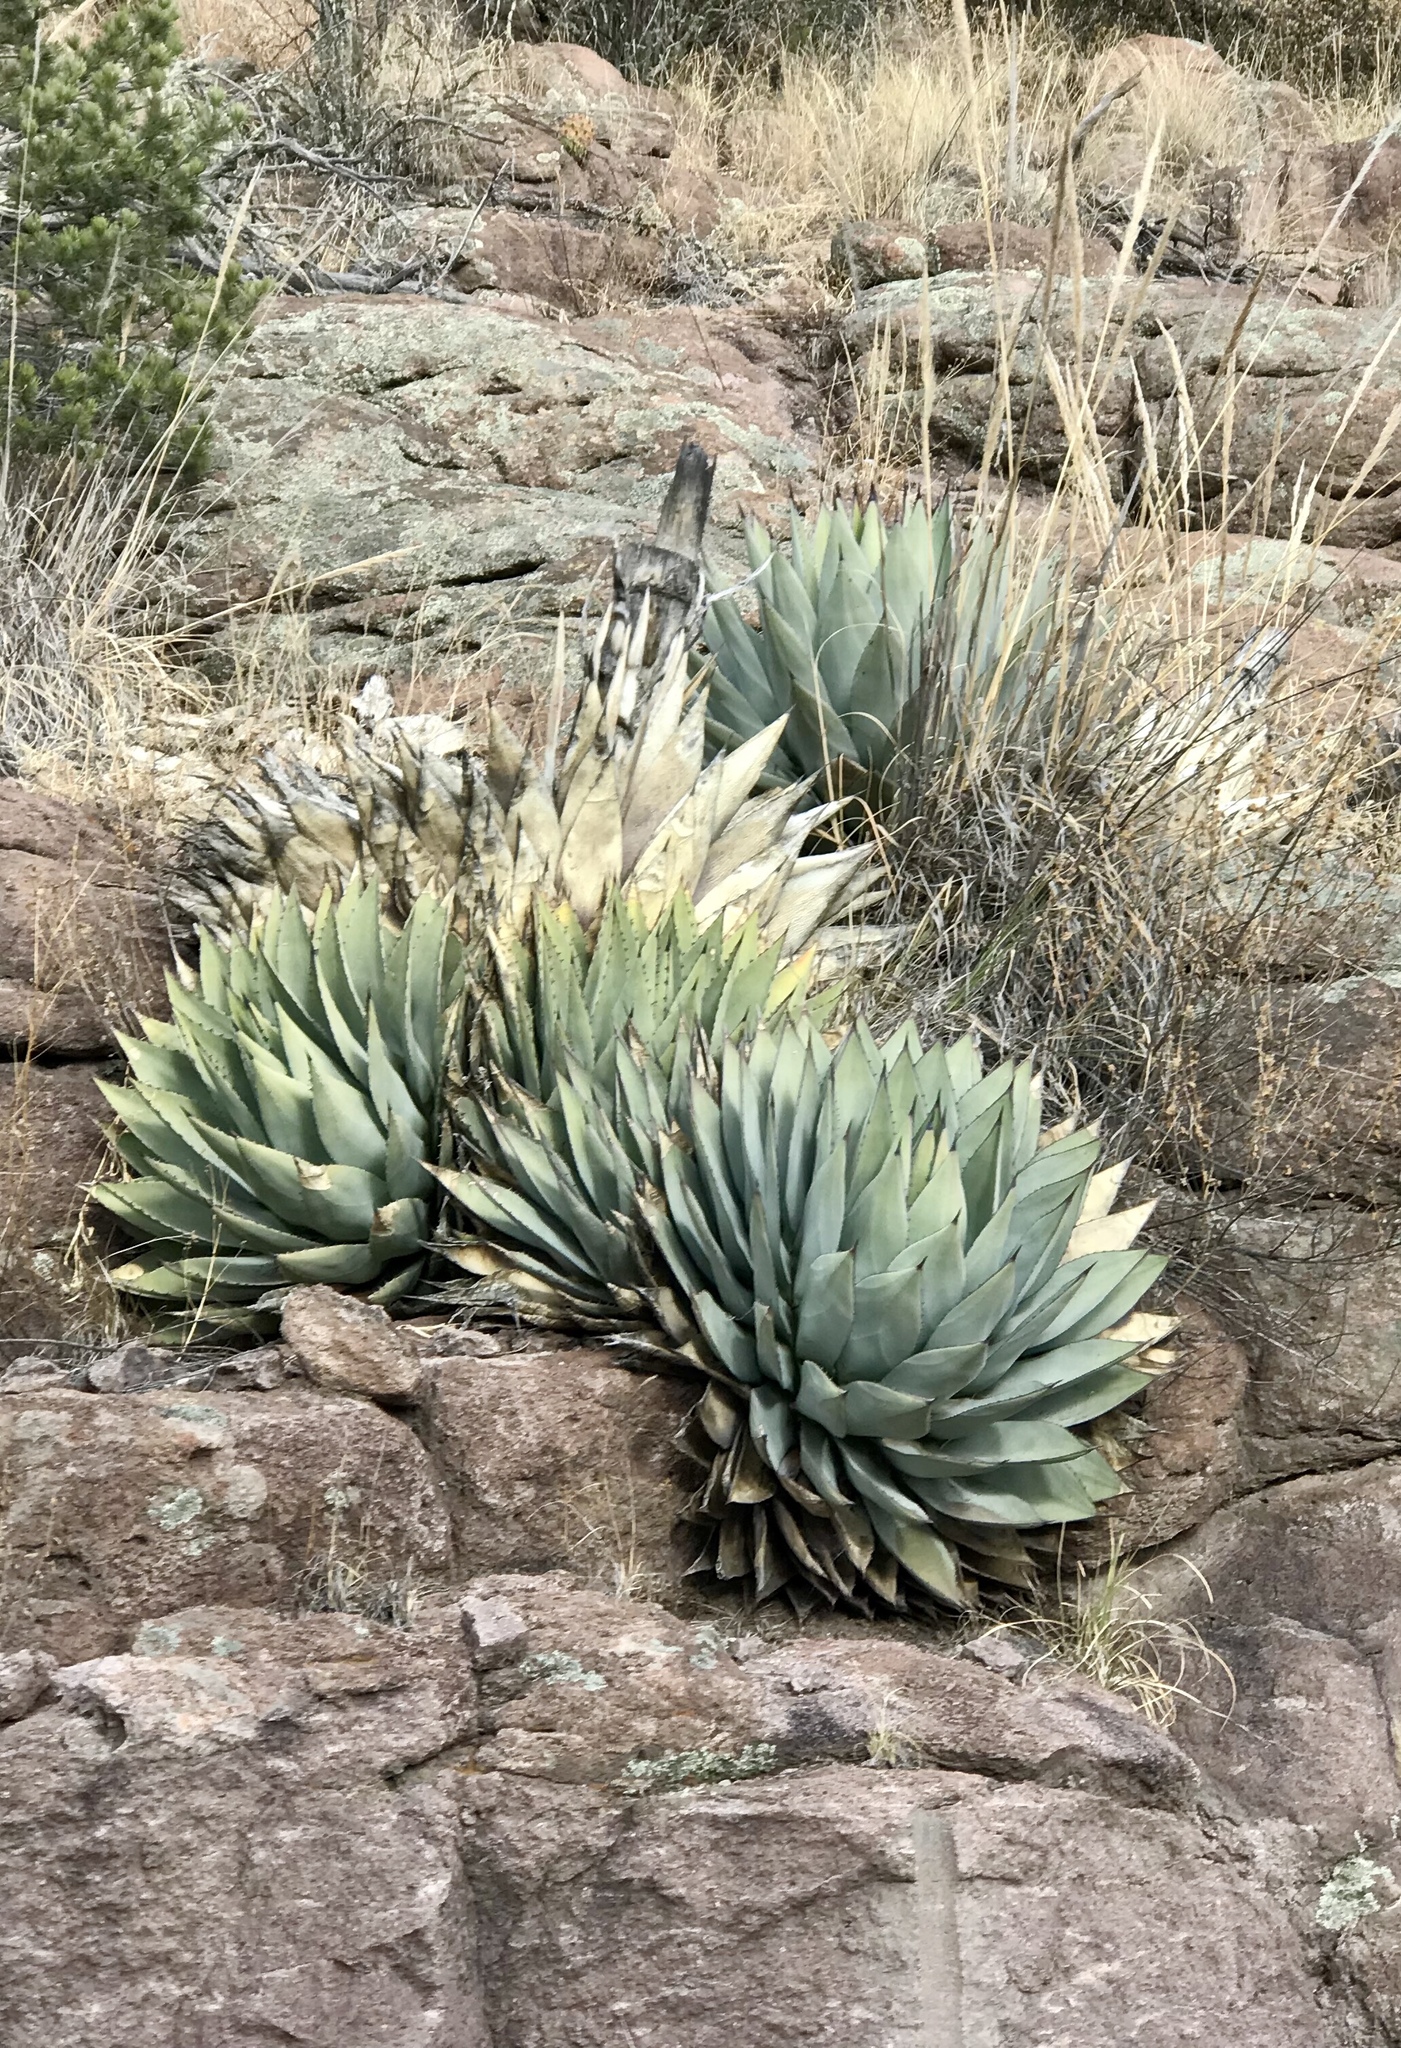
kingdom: Plantae
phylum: Tracheophyta
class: Liliopsida
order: Asparagales
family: Asparagaceae
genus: Agave
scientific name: Agave parryi
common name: Parry's agave
